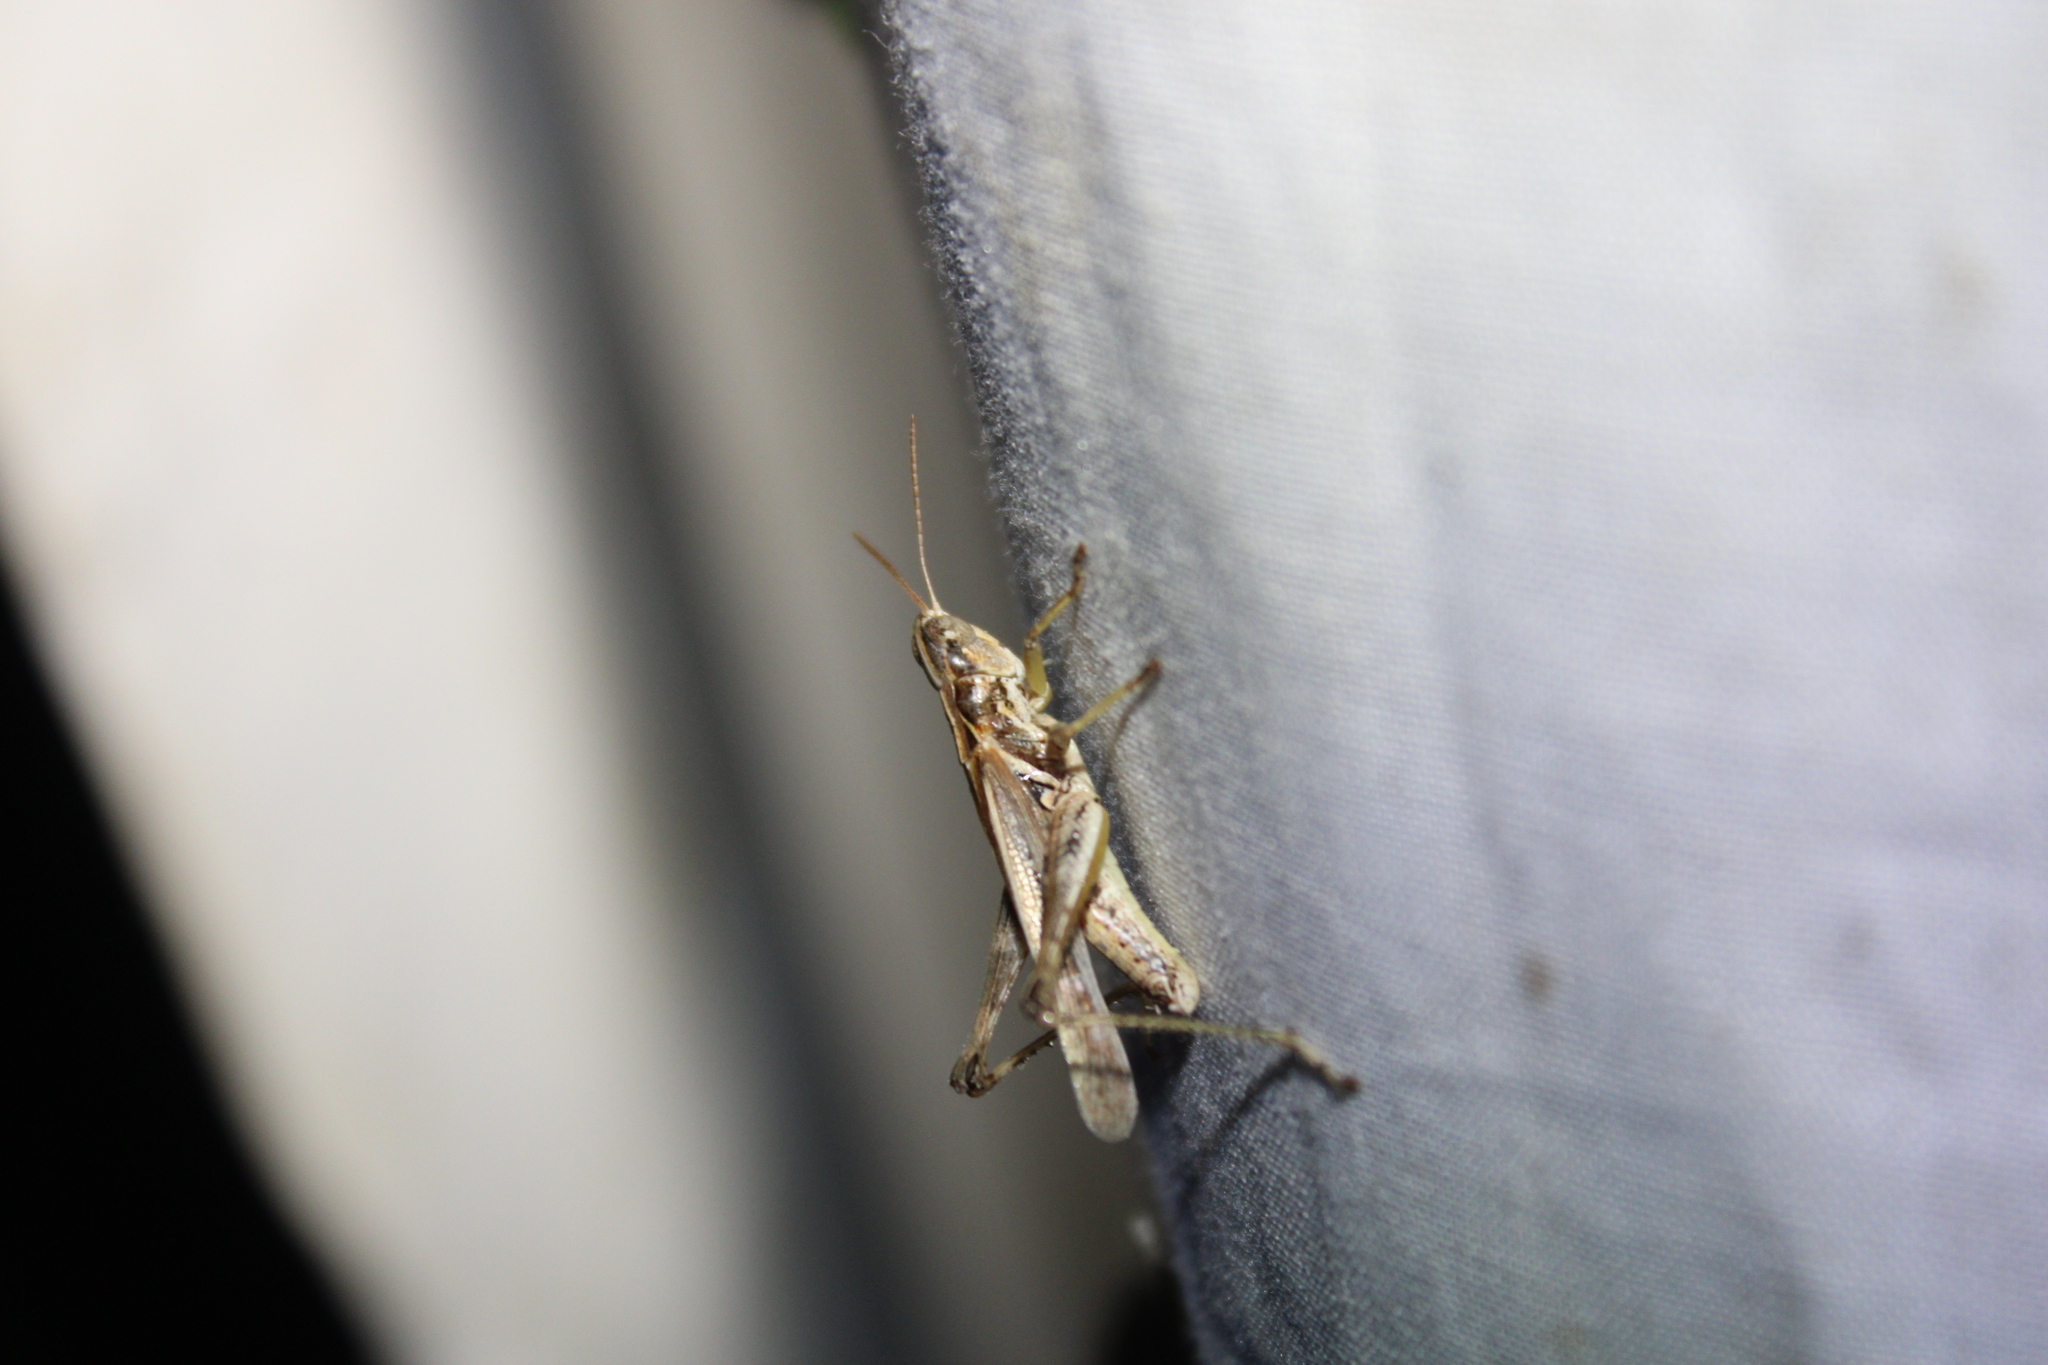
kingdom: Animalia
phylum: Arthropoda
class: Insecta
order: Orthoptera
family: Acrididae
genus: Orphulella
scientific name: Orphulella pelidna
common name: Spotted-wing grasshopper
